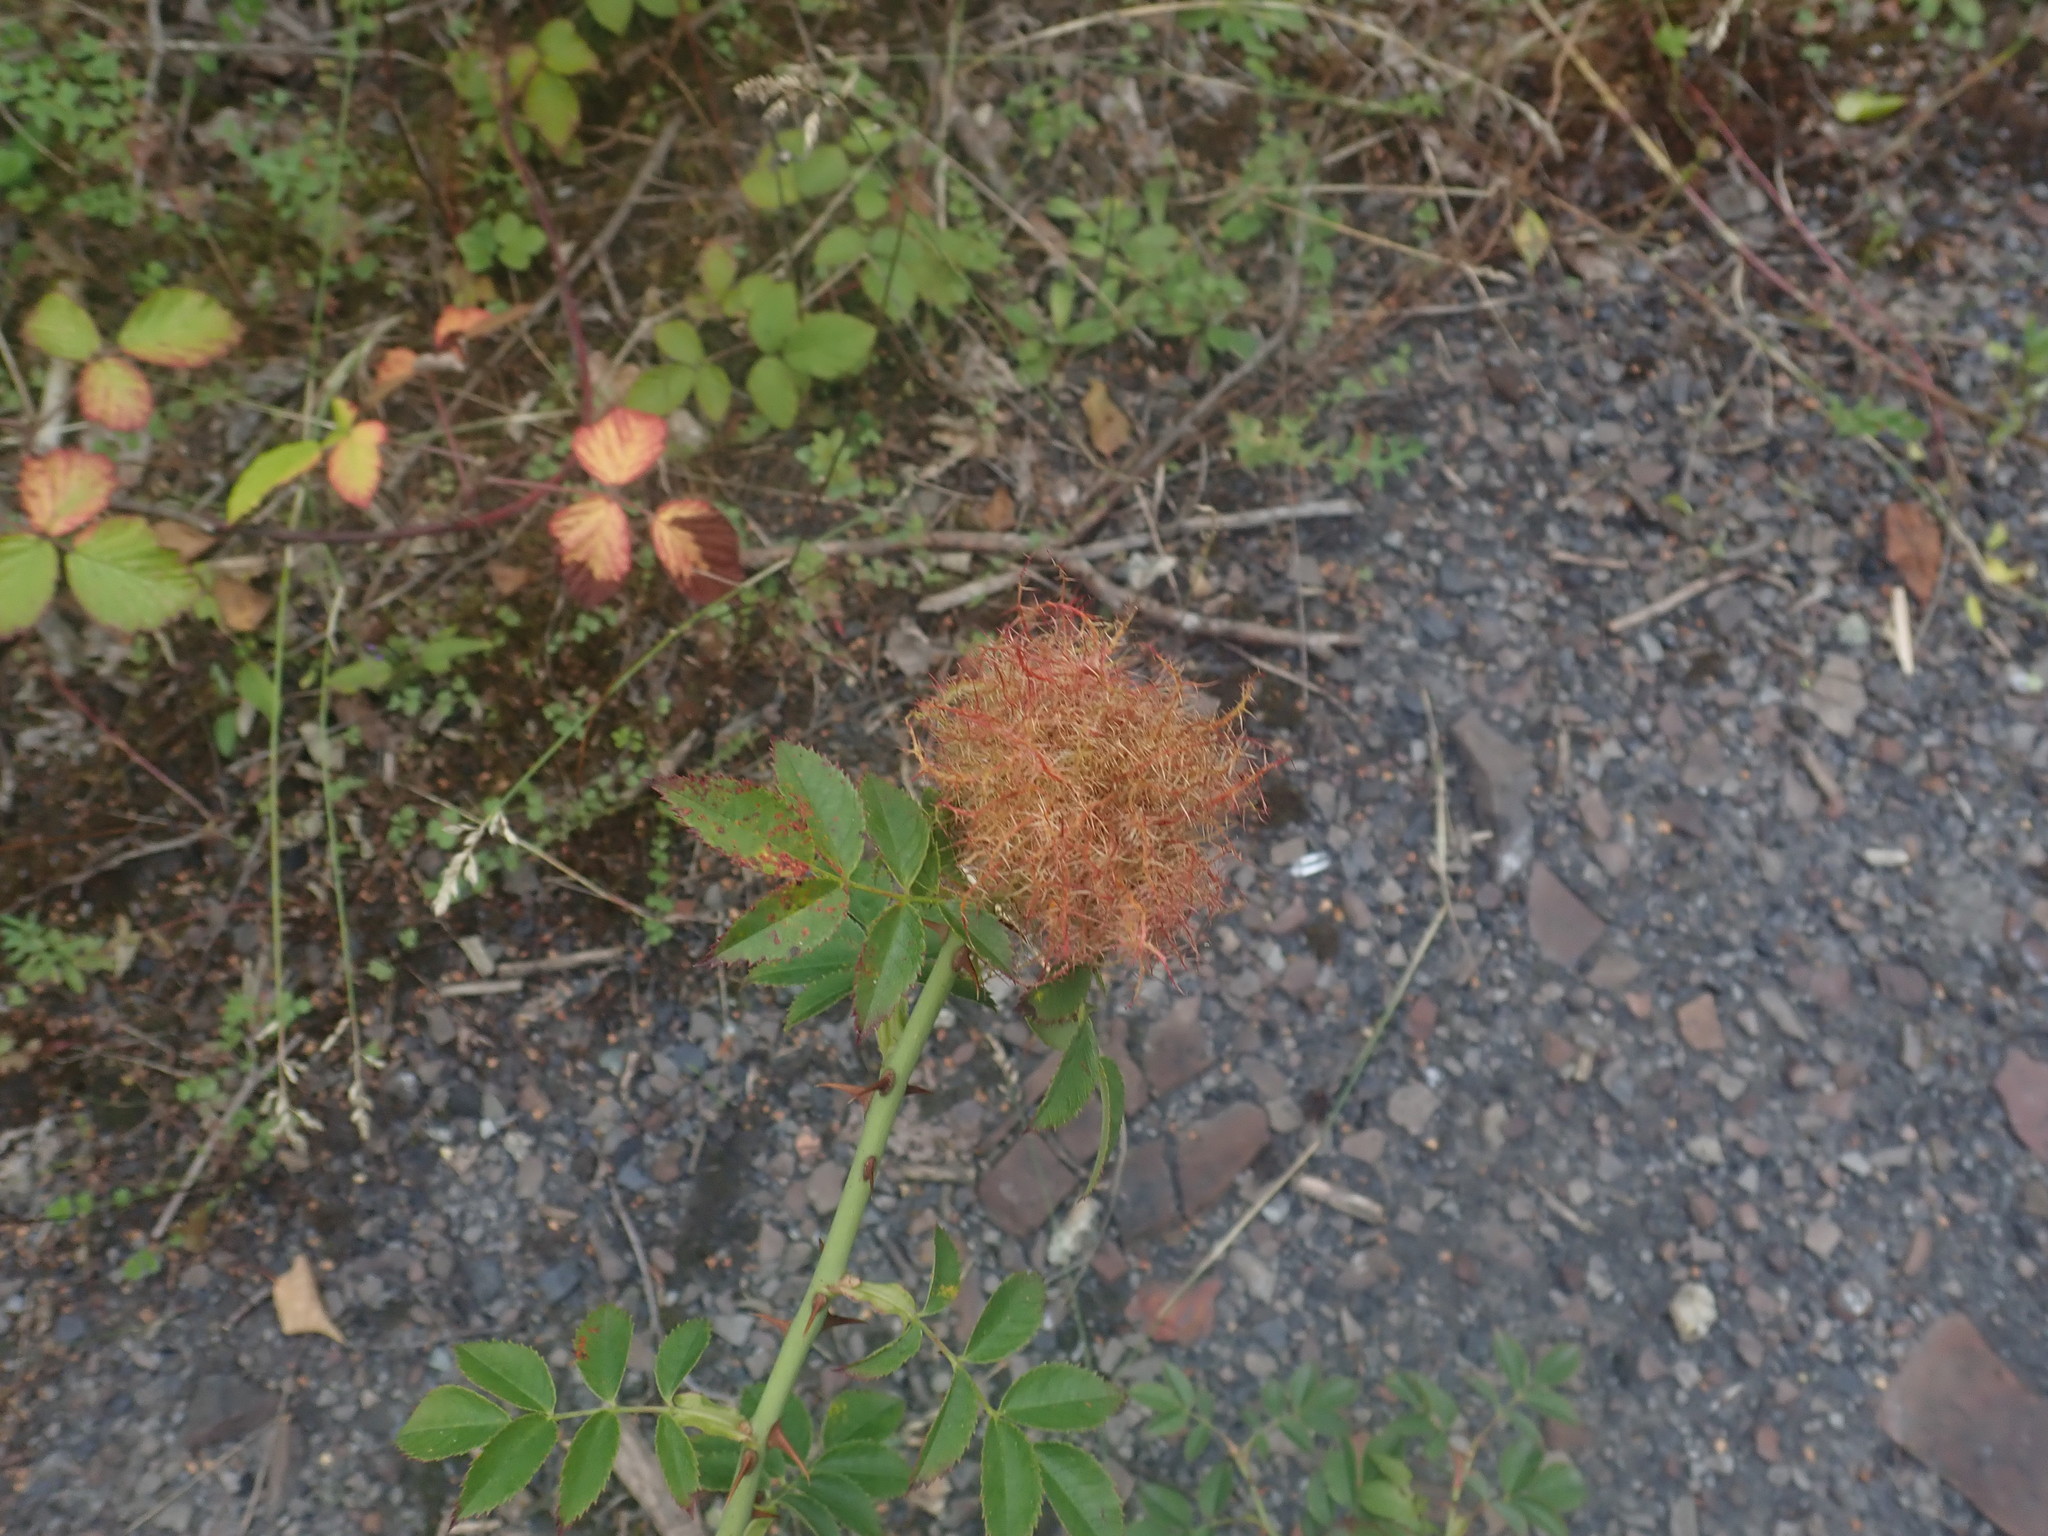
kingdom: Animalia
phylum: Arthropoda
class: Insecta
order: Hymenoptera
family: Cynipidae
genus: Diplolepis
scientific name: Diplolepis rosae
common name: Bedeguar gall
